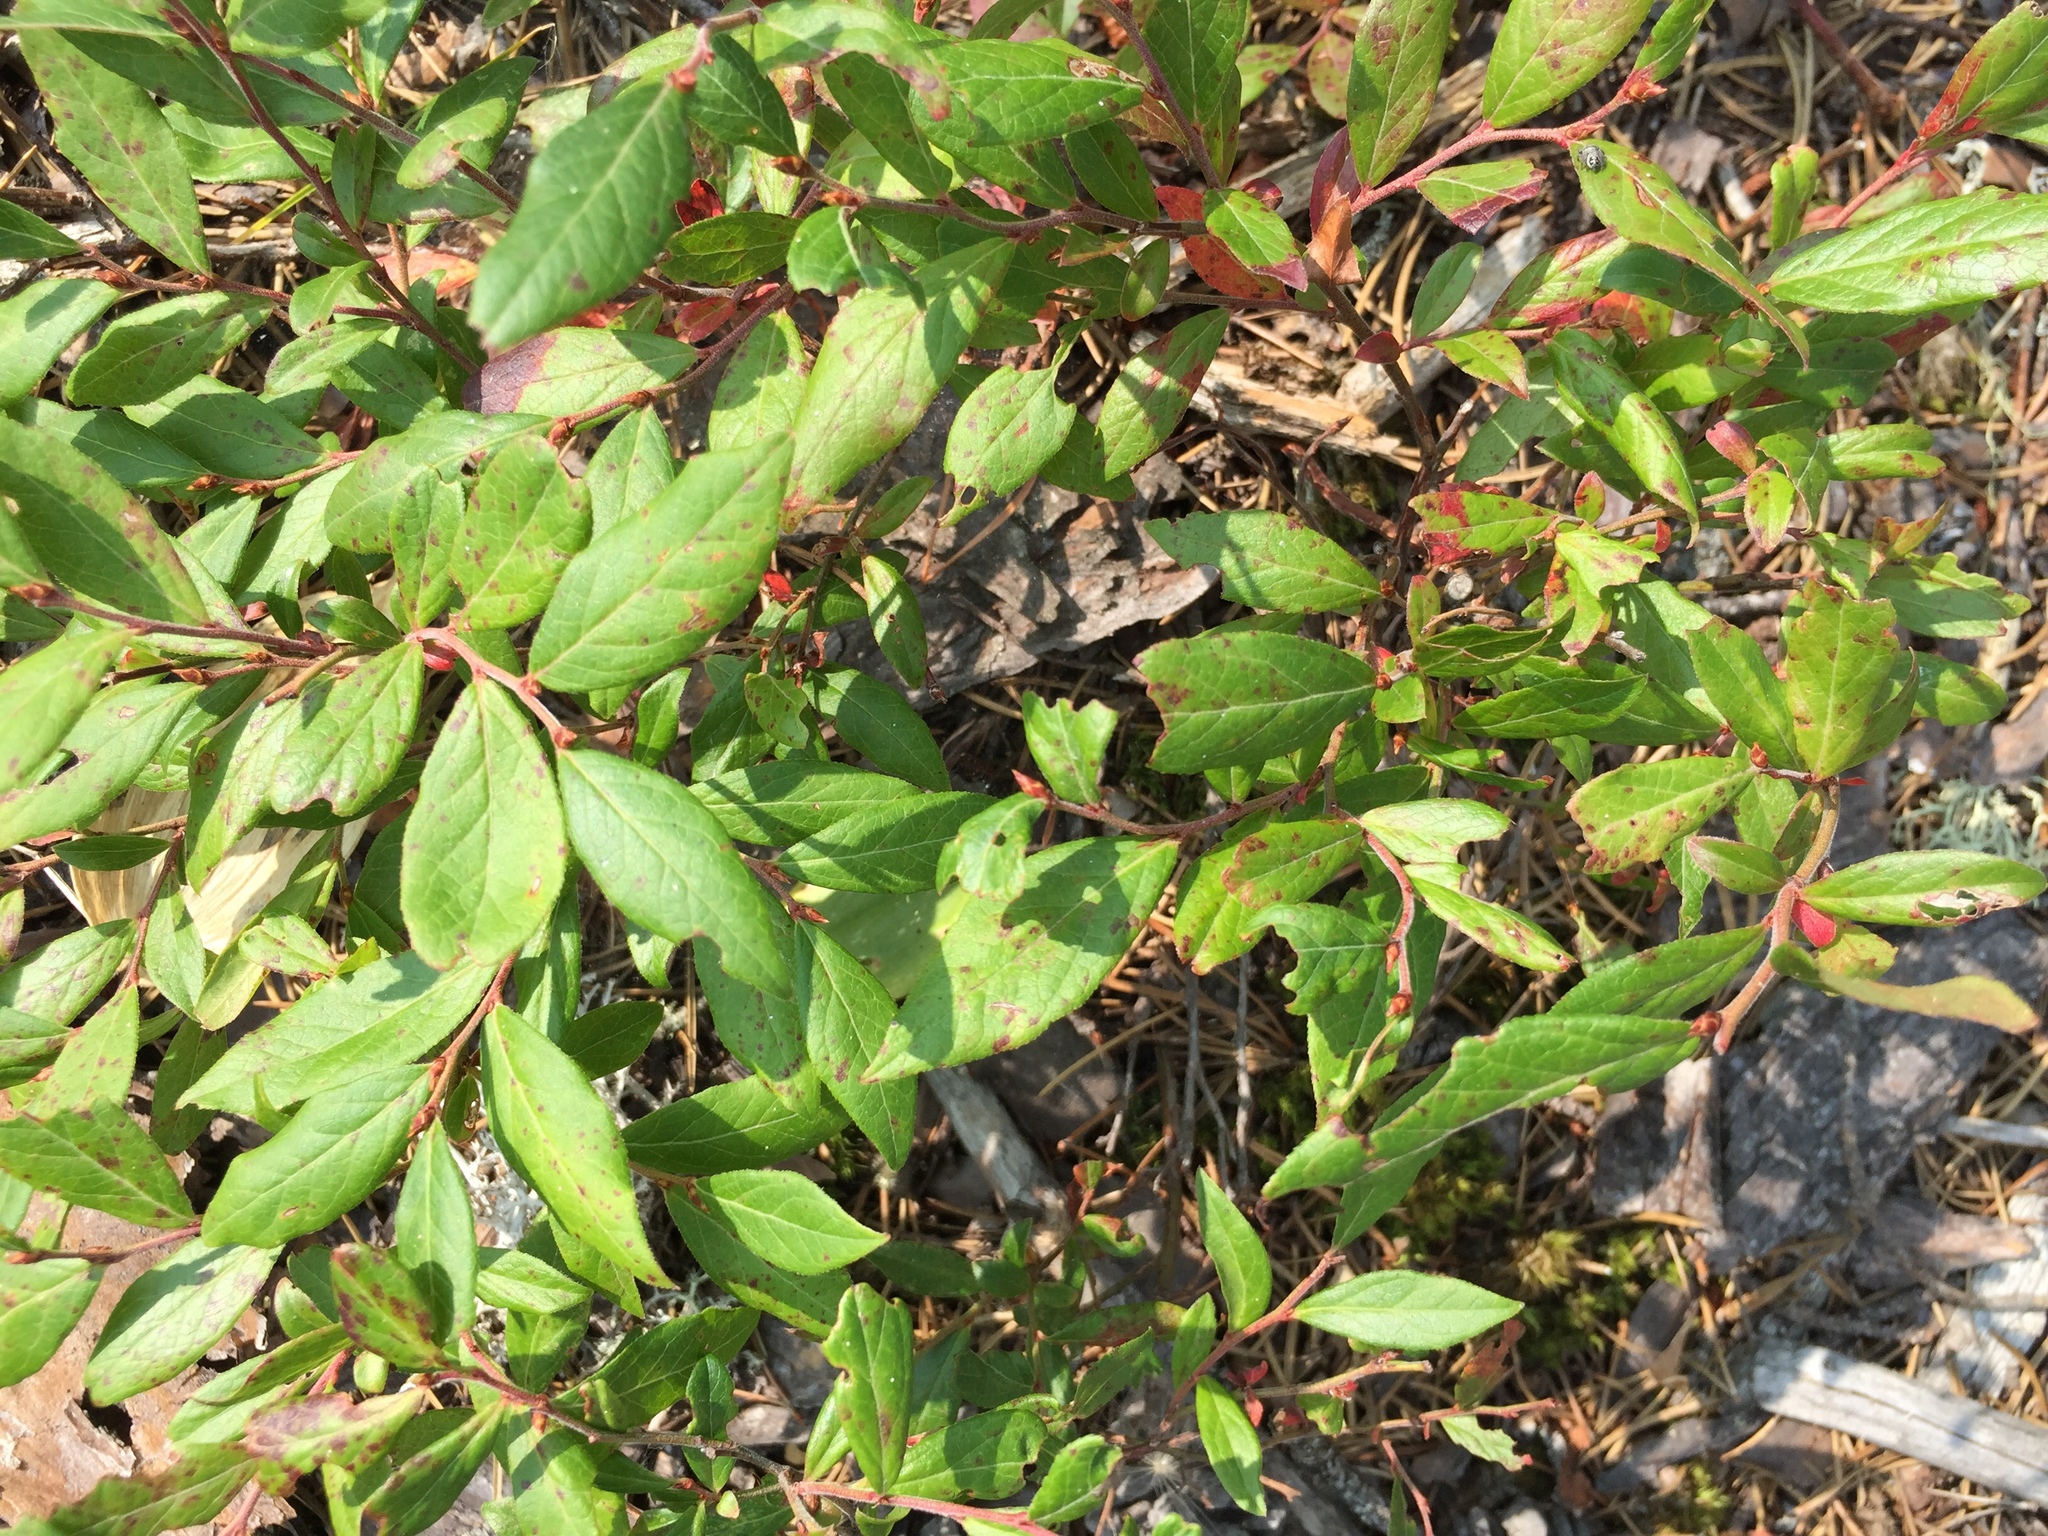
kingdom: Plantae
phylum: Tracheophyta
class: Magnoliopsida
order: Ericales
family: Ericaceae
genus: Vaccinium
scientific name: Vaccinium angustifolium
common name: Early lowbush blueberry
